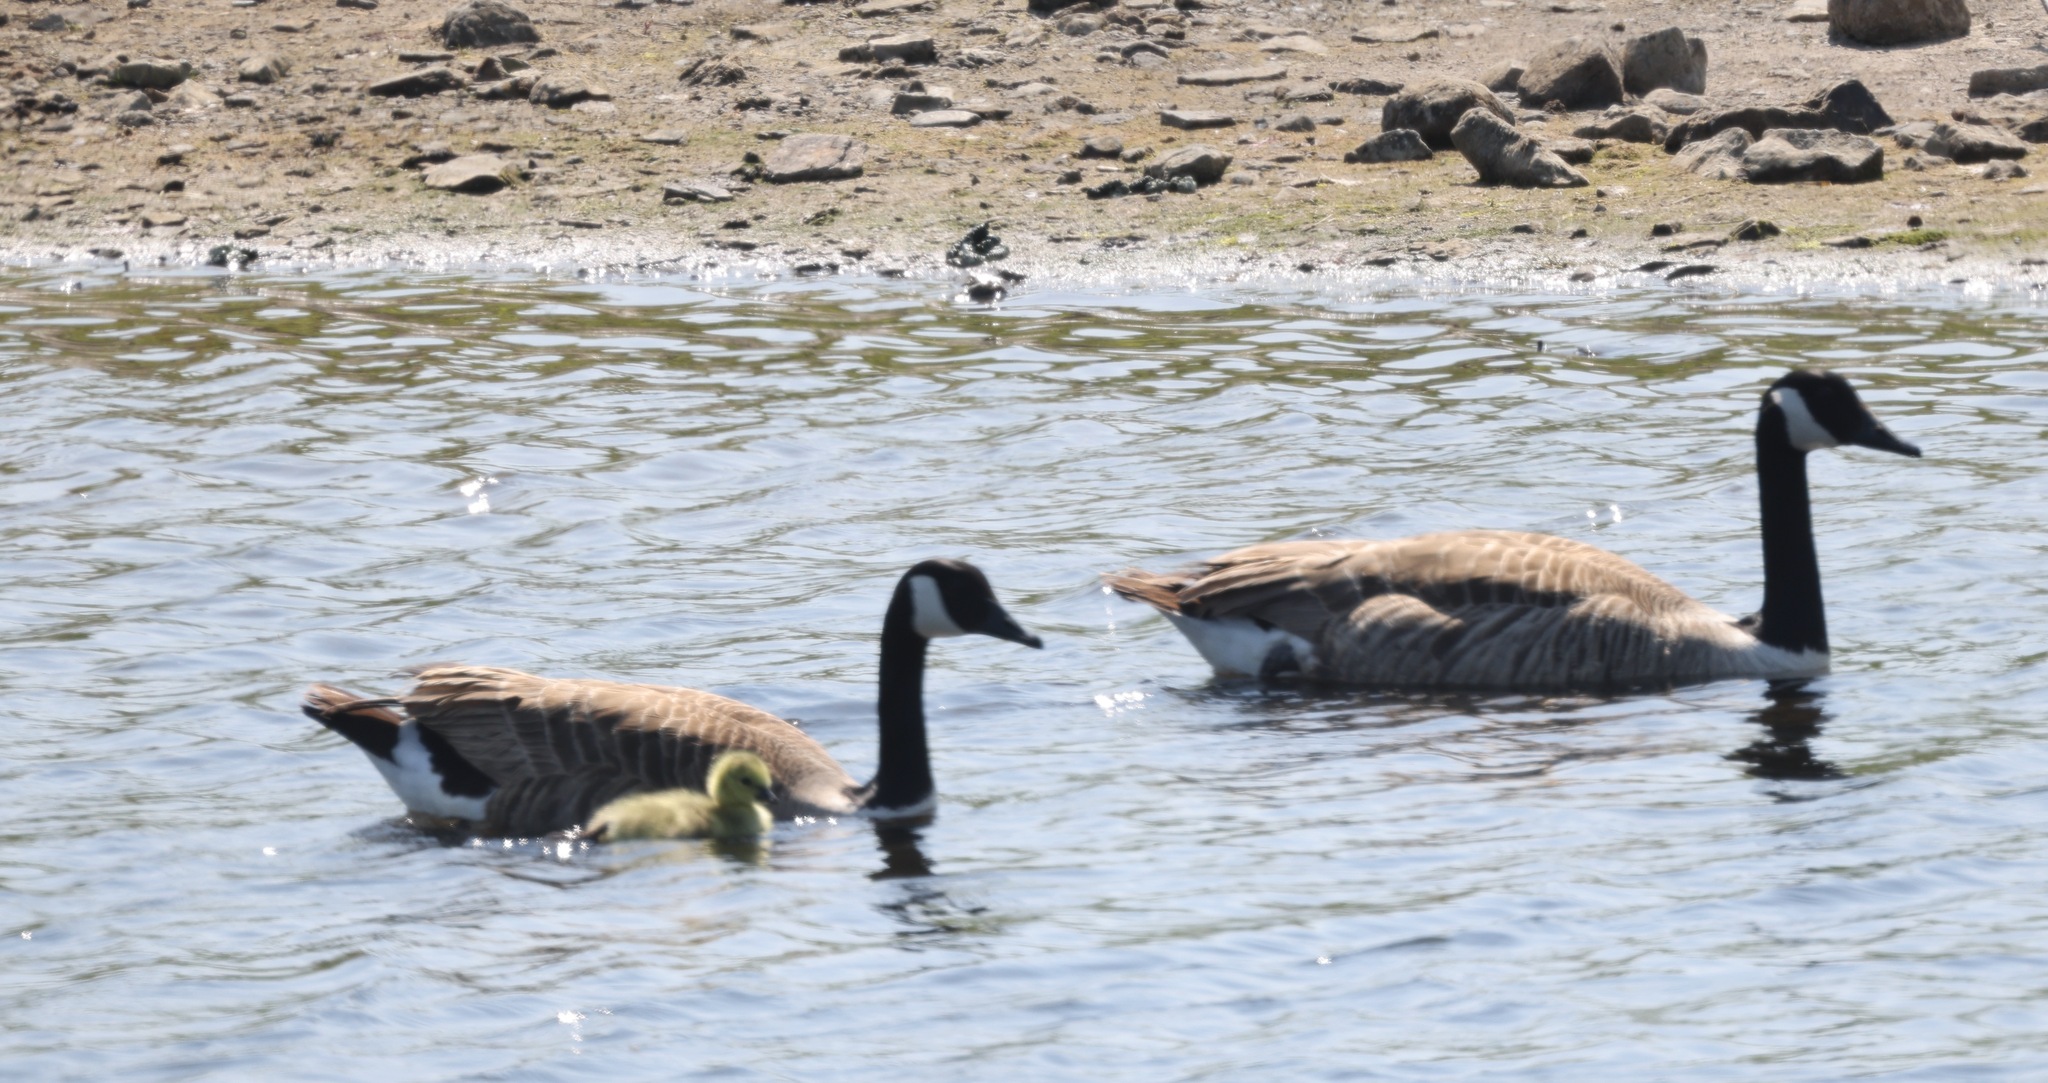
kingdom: Animalia
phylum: Chordata
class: Aves
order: Anseriformes
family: Anatidae
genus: Branta
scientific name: Branta canadensis
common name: Canada goose
